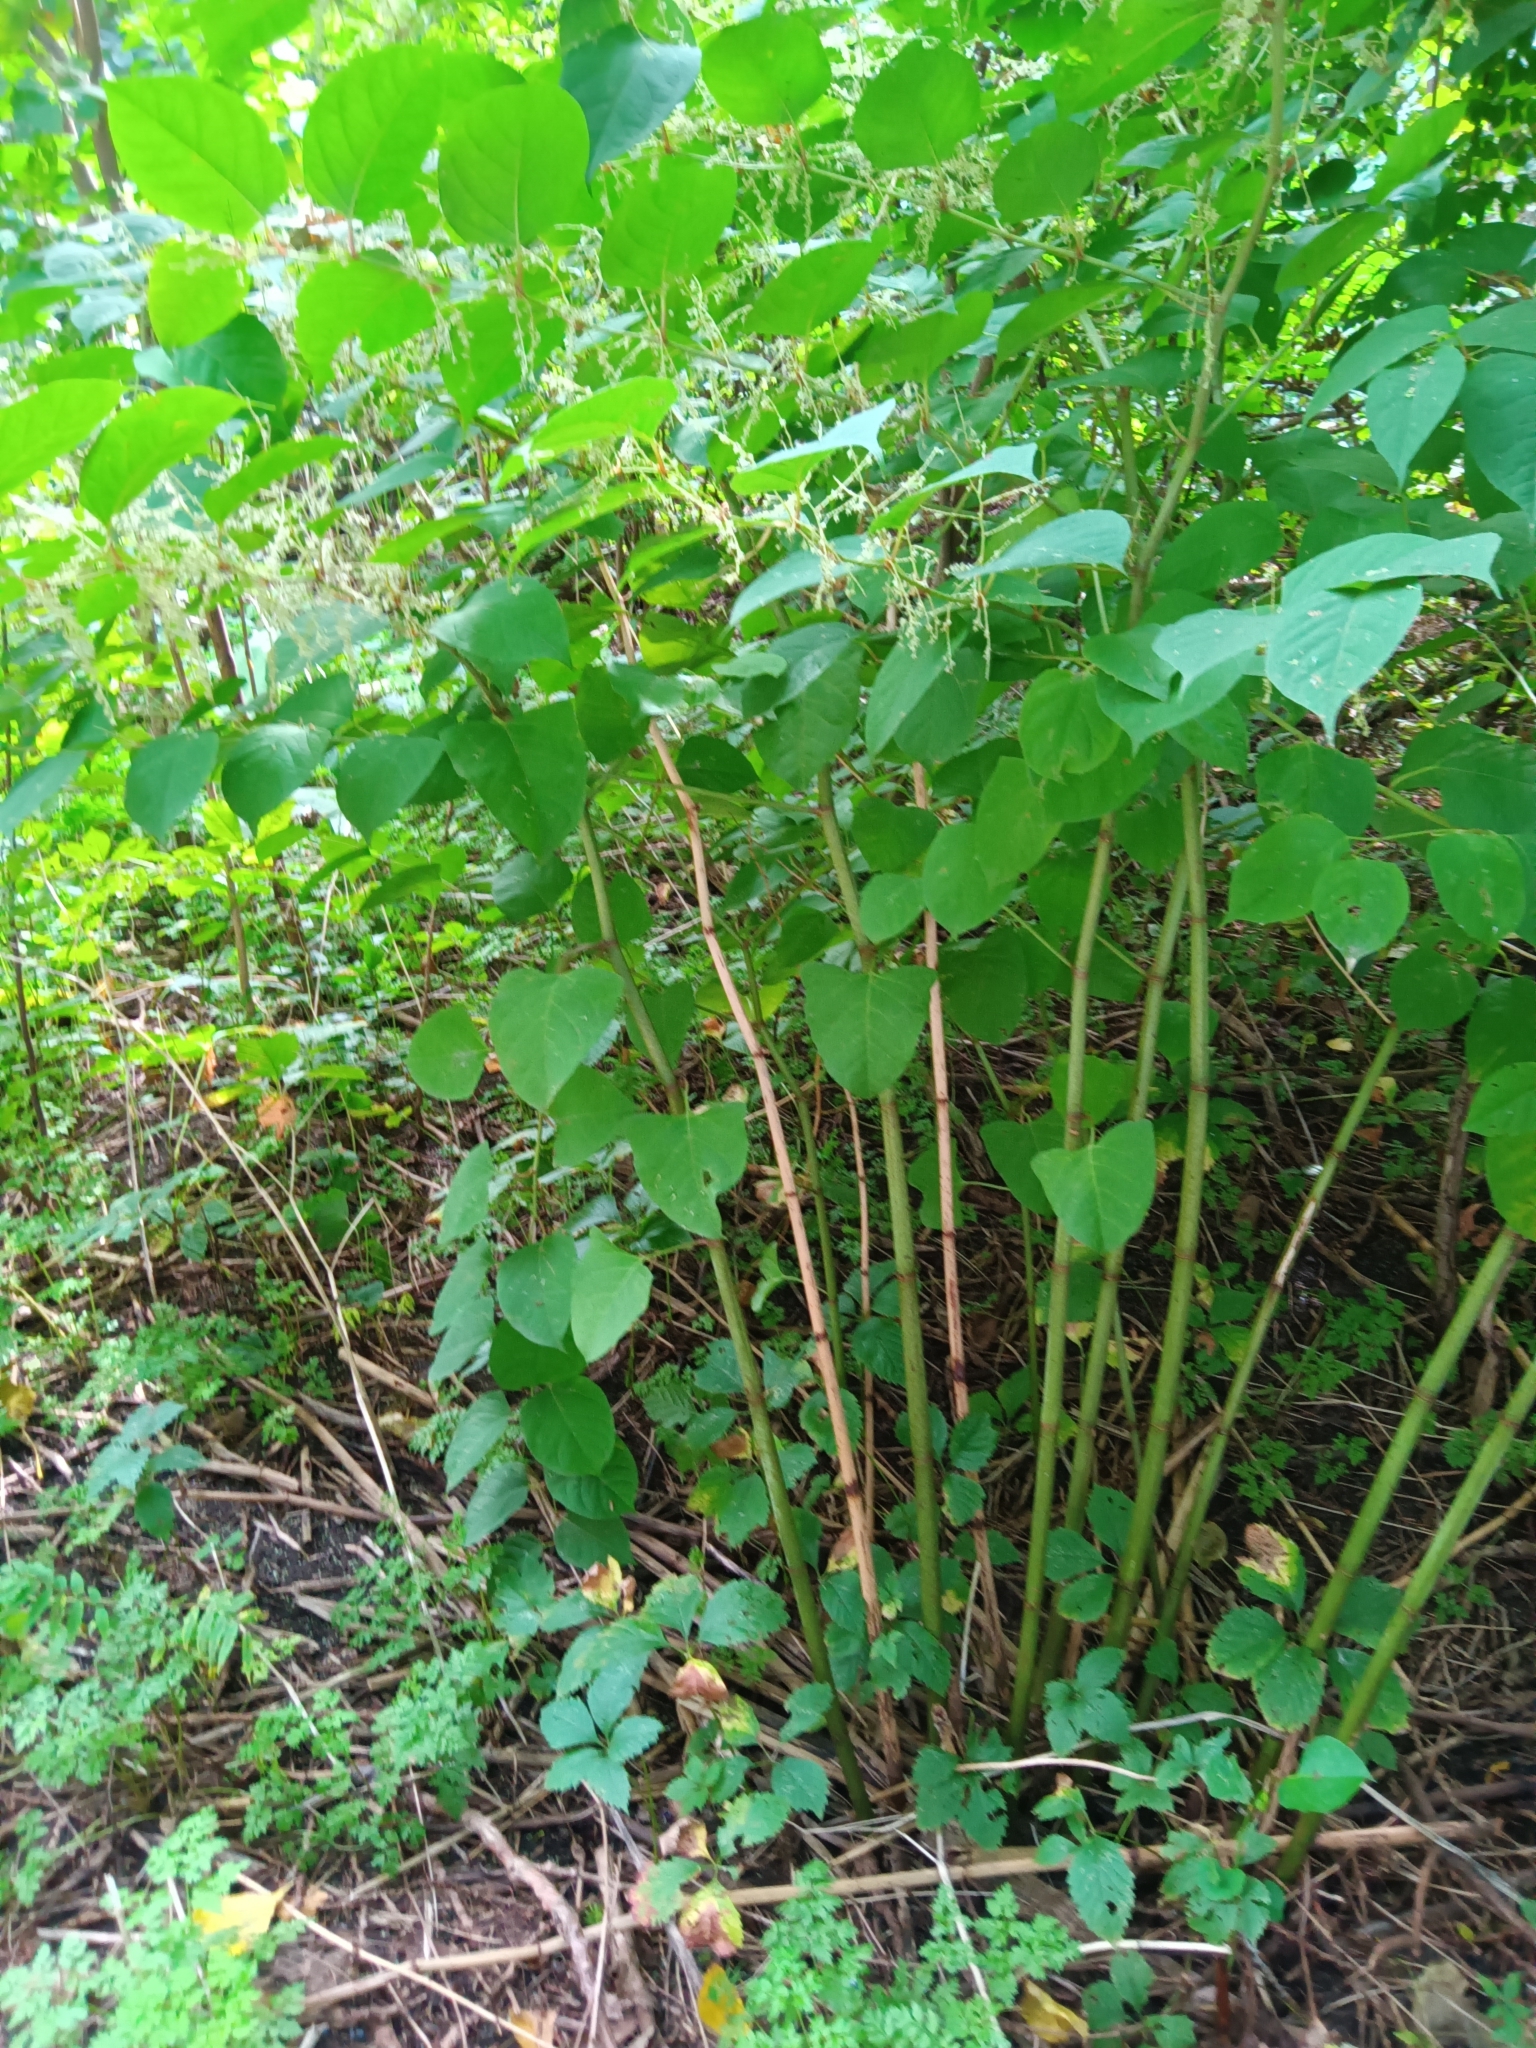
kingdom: Plantae
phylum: Tracheophyta
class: Magnoliopsida
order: Caryophyllales
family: Polygonaceae
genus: Reynoutria
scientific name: Reynoutria japonica
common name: Japanese knotweed
